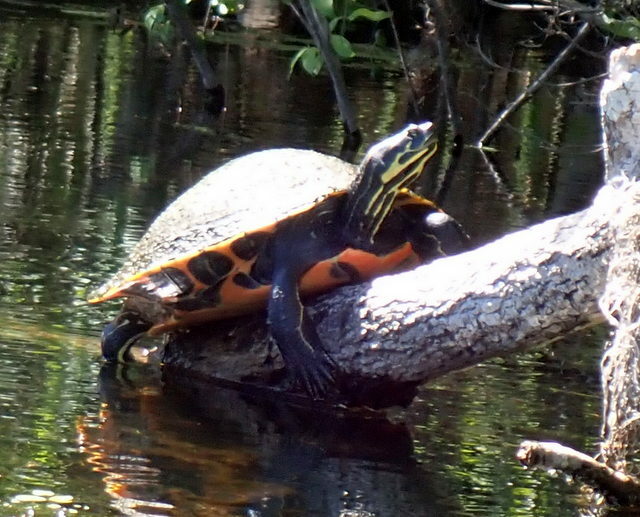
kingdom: Animalia
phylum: Chordata
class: Testudines
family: Emydidae
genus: Pseudemys
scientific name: Pseudemys concinna
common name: Eastern river cooter
